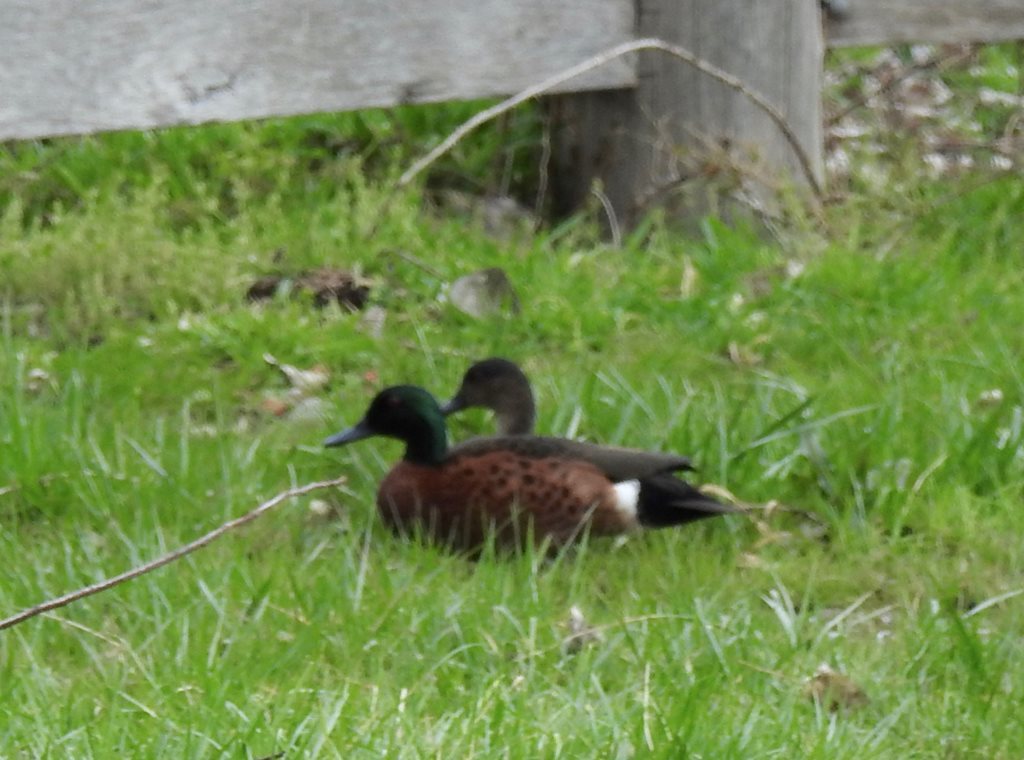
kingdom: Animalia
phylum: Chordata
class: Aves
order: Anseriformes
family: Anatidae
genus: Anas
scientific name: Anas castanea
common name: Chestnut teal
